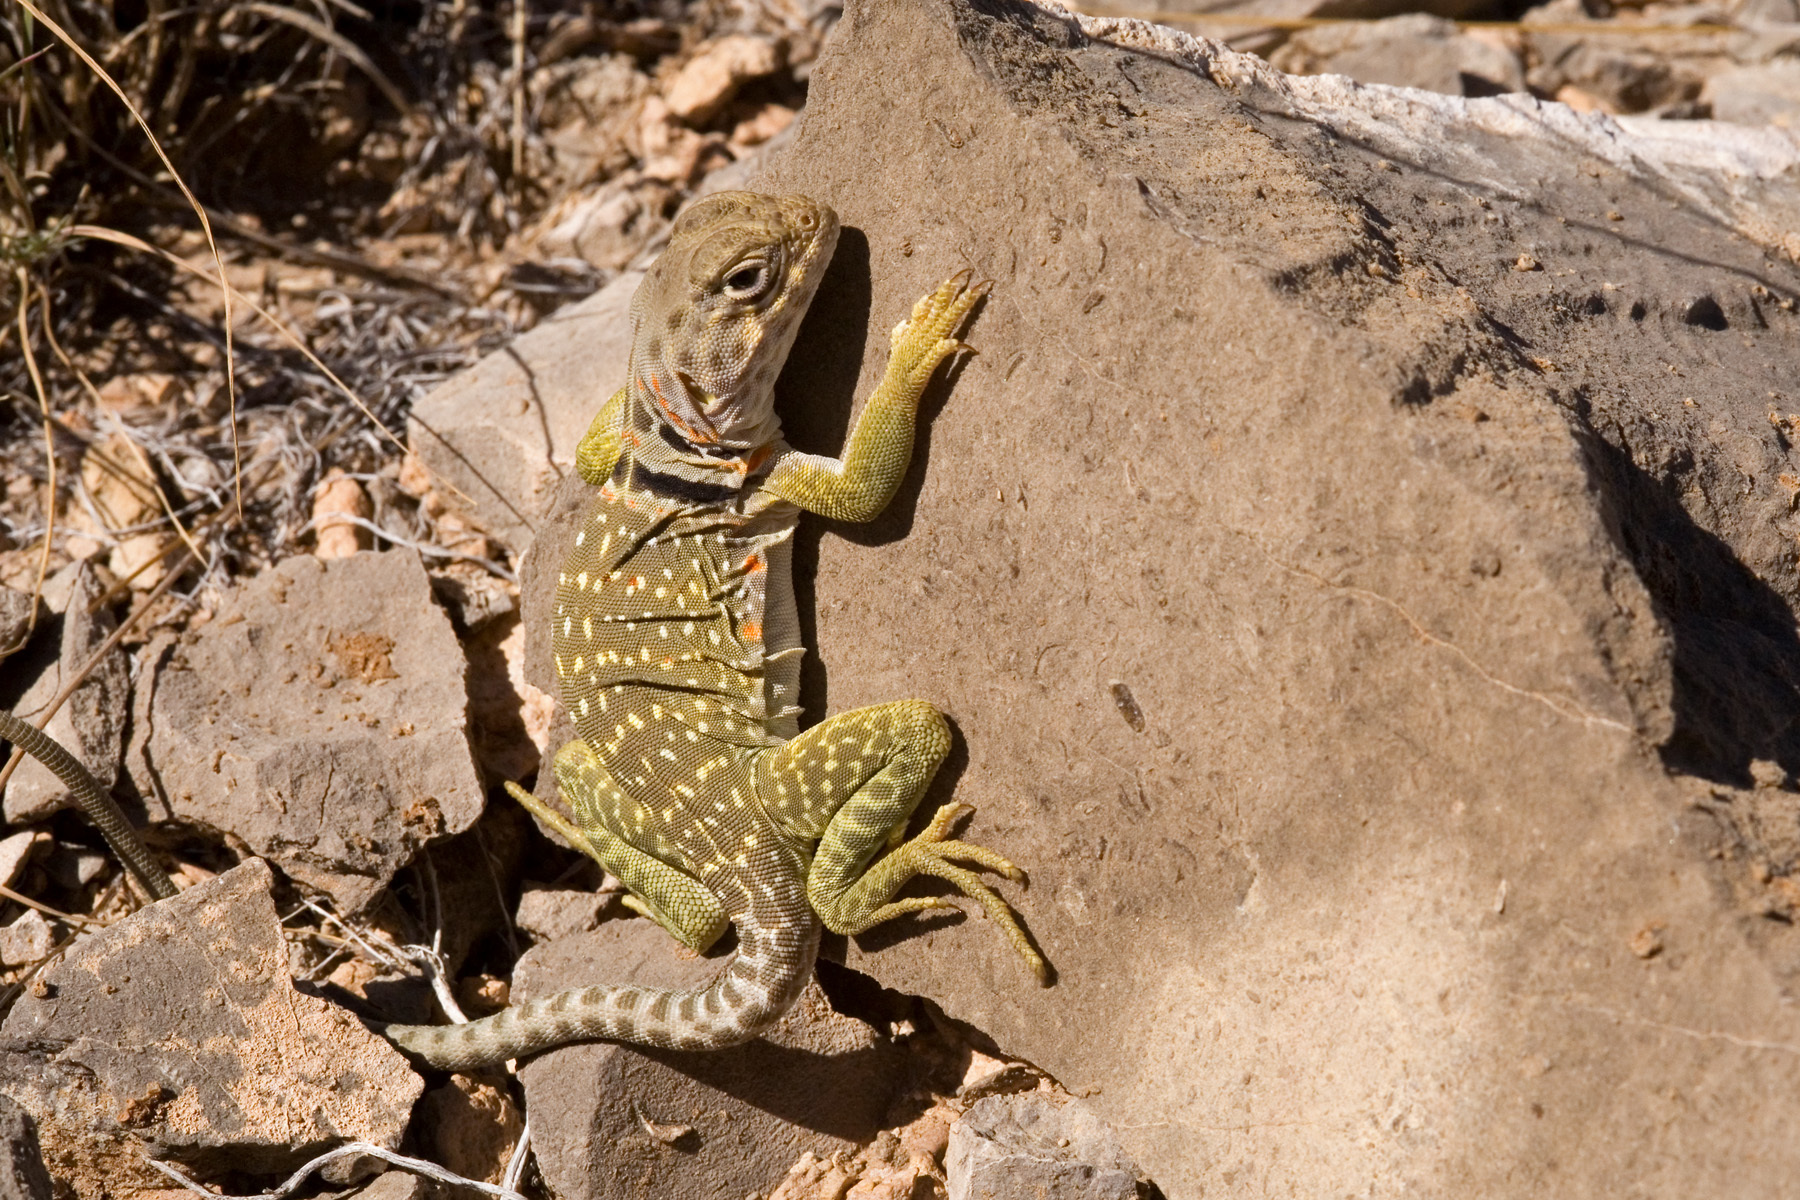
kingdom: Animalia
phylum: Chordata
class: Squamata
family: Crotaphytidae
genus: Crotaphytus
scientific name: Crotaphytus collaris
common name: Collared lizard
